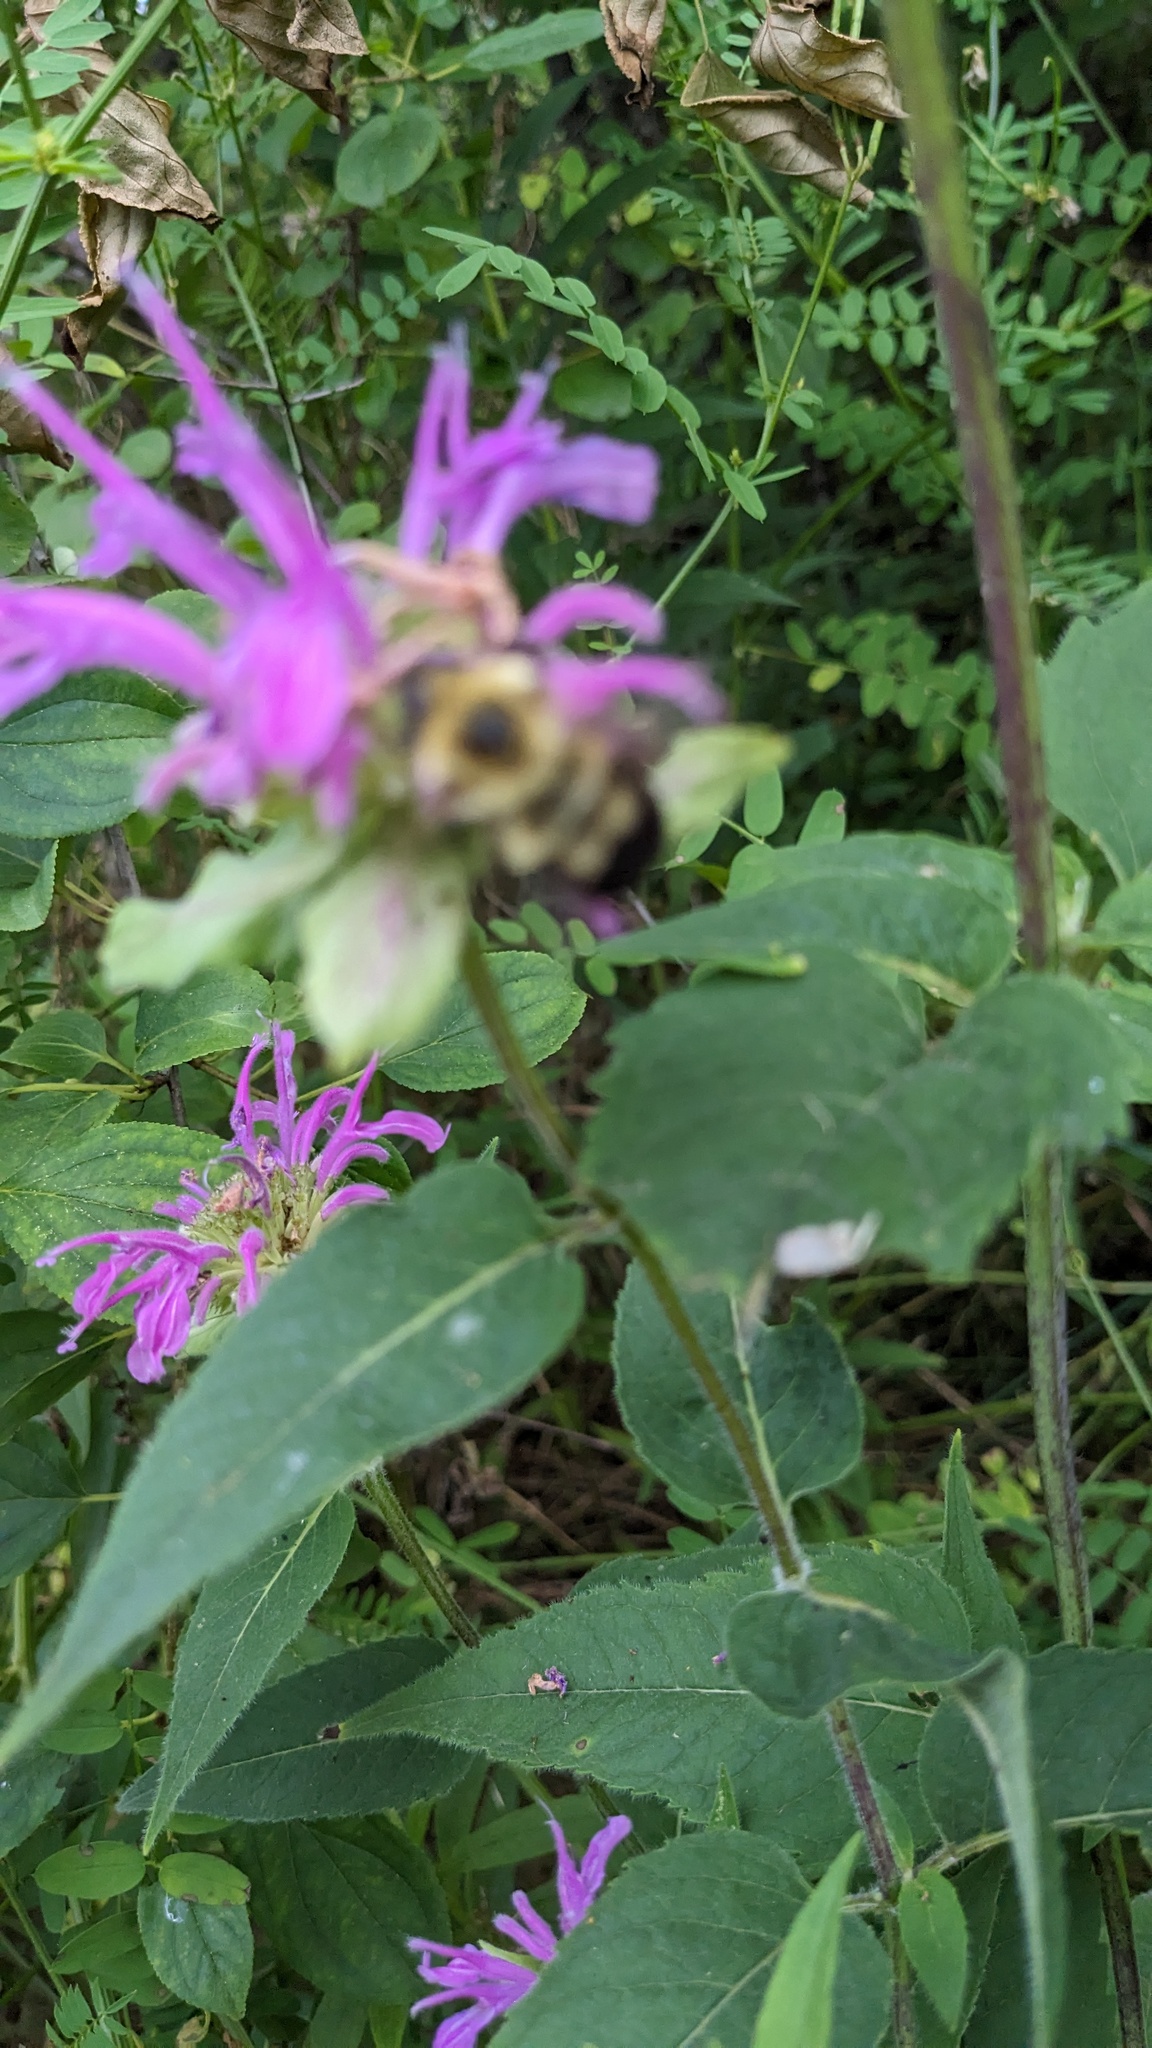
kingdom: Animalia
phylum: Arthropoda
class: Insecta
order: Hymenoptera
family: Apidae
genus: Bombus
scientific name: Bombus bimaculatus
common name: Two-spotted bumble bee
